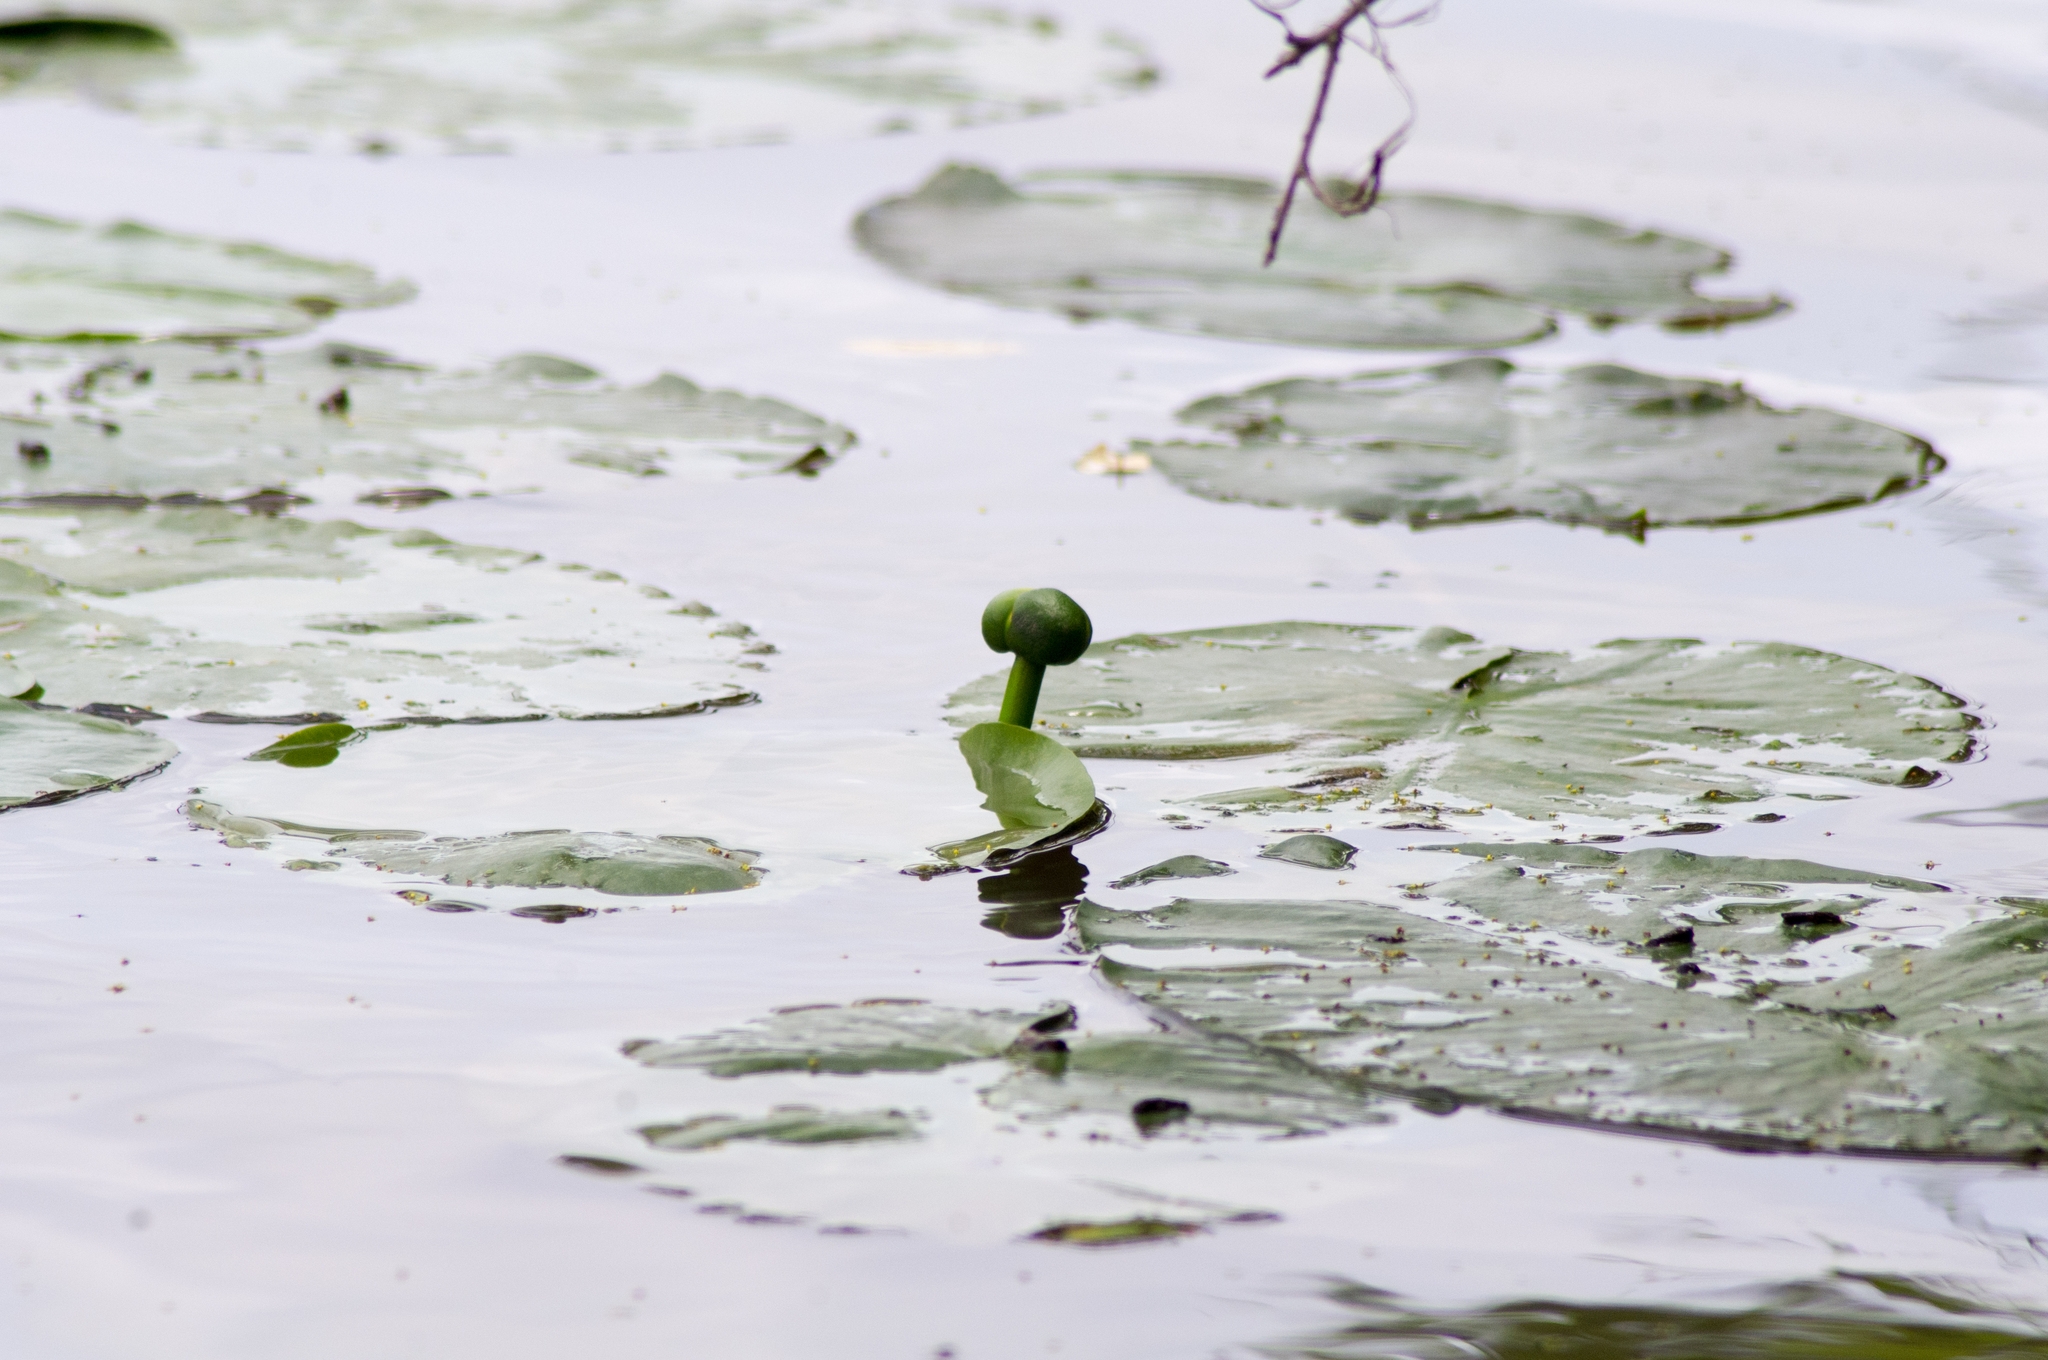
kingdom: Plantae
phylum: Tracheophyta
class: Magnoliopsida
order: Nymphaeales
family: Nymphaeaceae
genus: Nuphar
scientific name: Nuphar advena
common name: Spatter-dock
